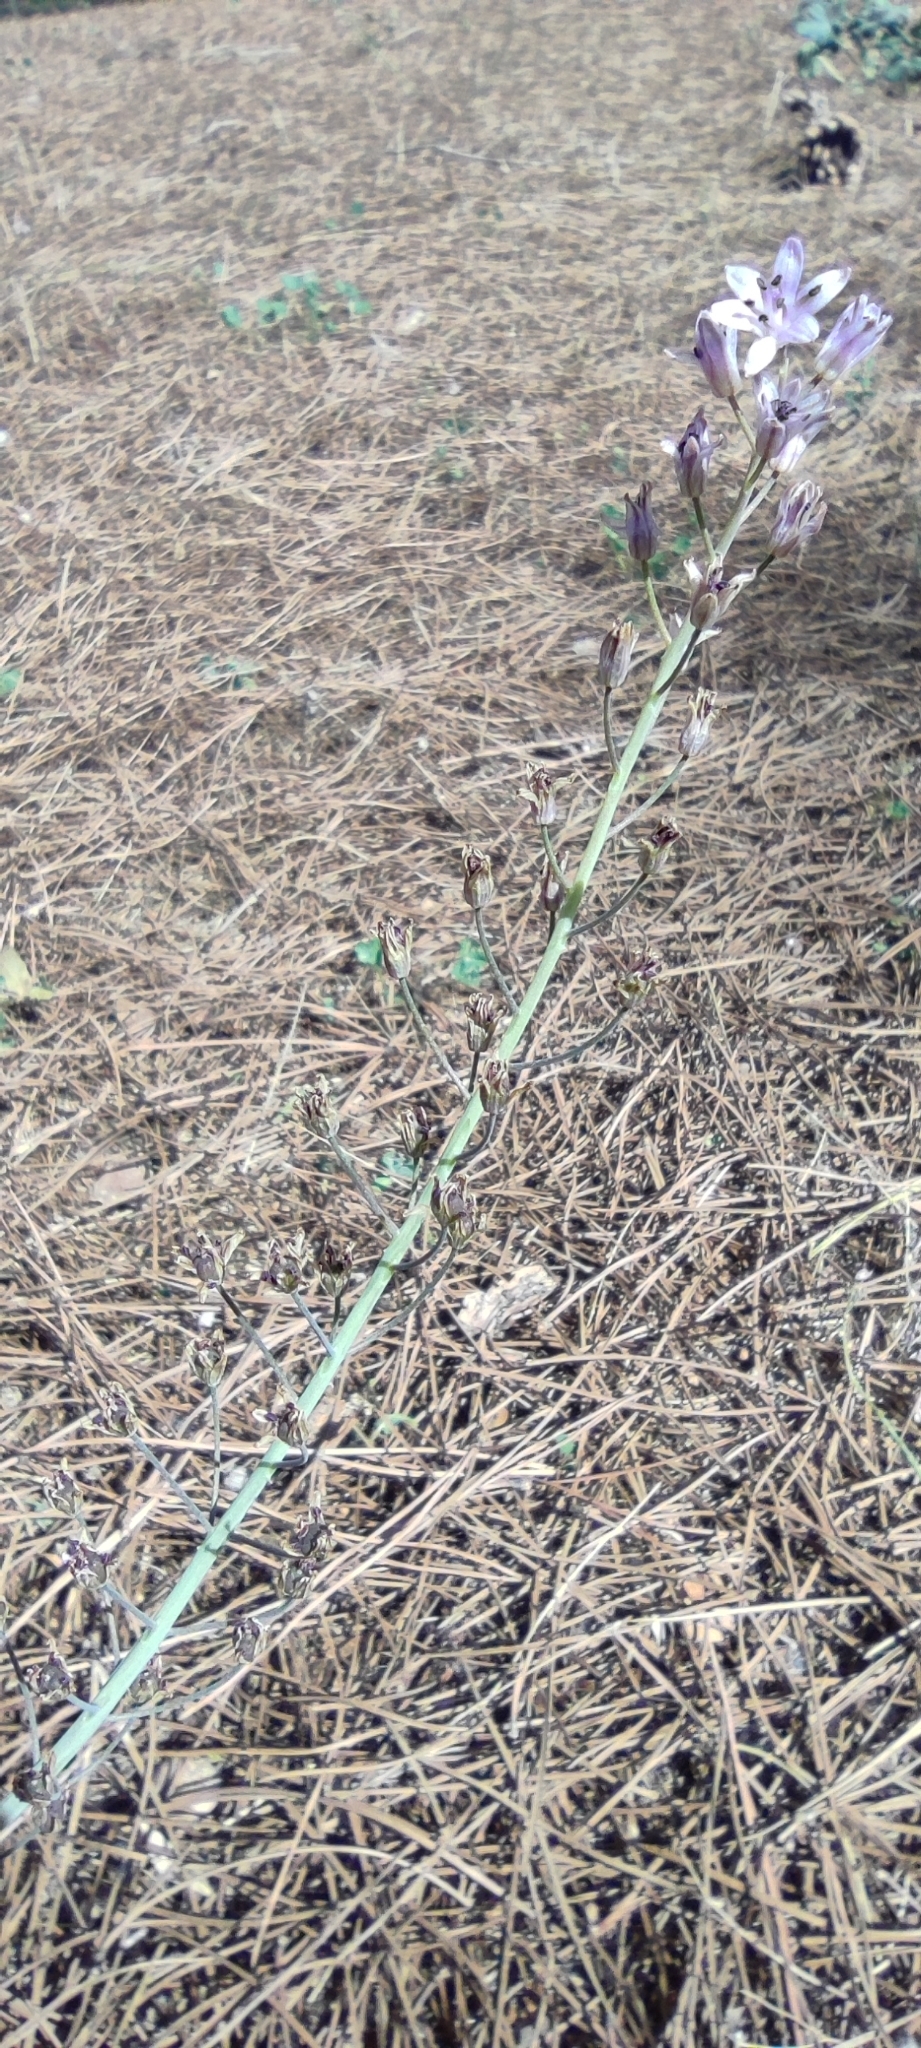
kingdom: Plantae
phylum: Tracheophyta
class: Liliopsida
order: Asparagales
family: Asparagaceae
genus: Prospero
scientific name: Prospero autumnale
